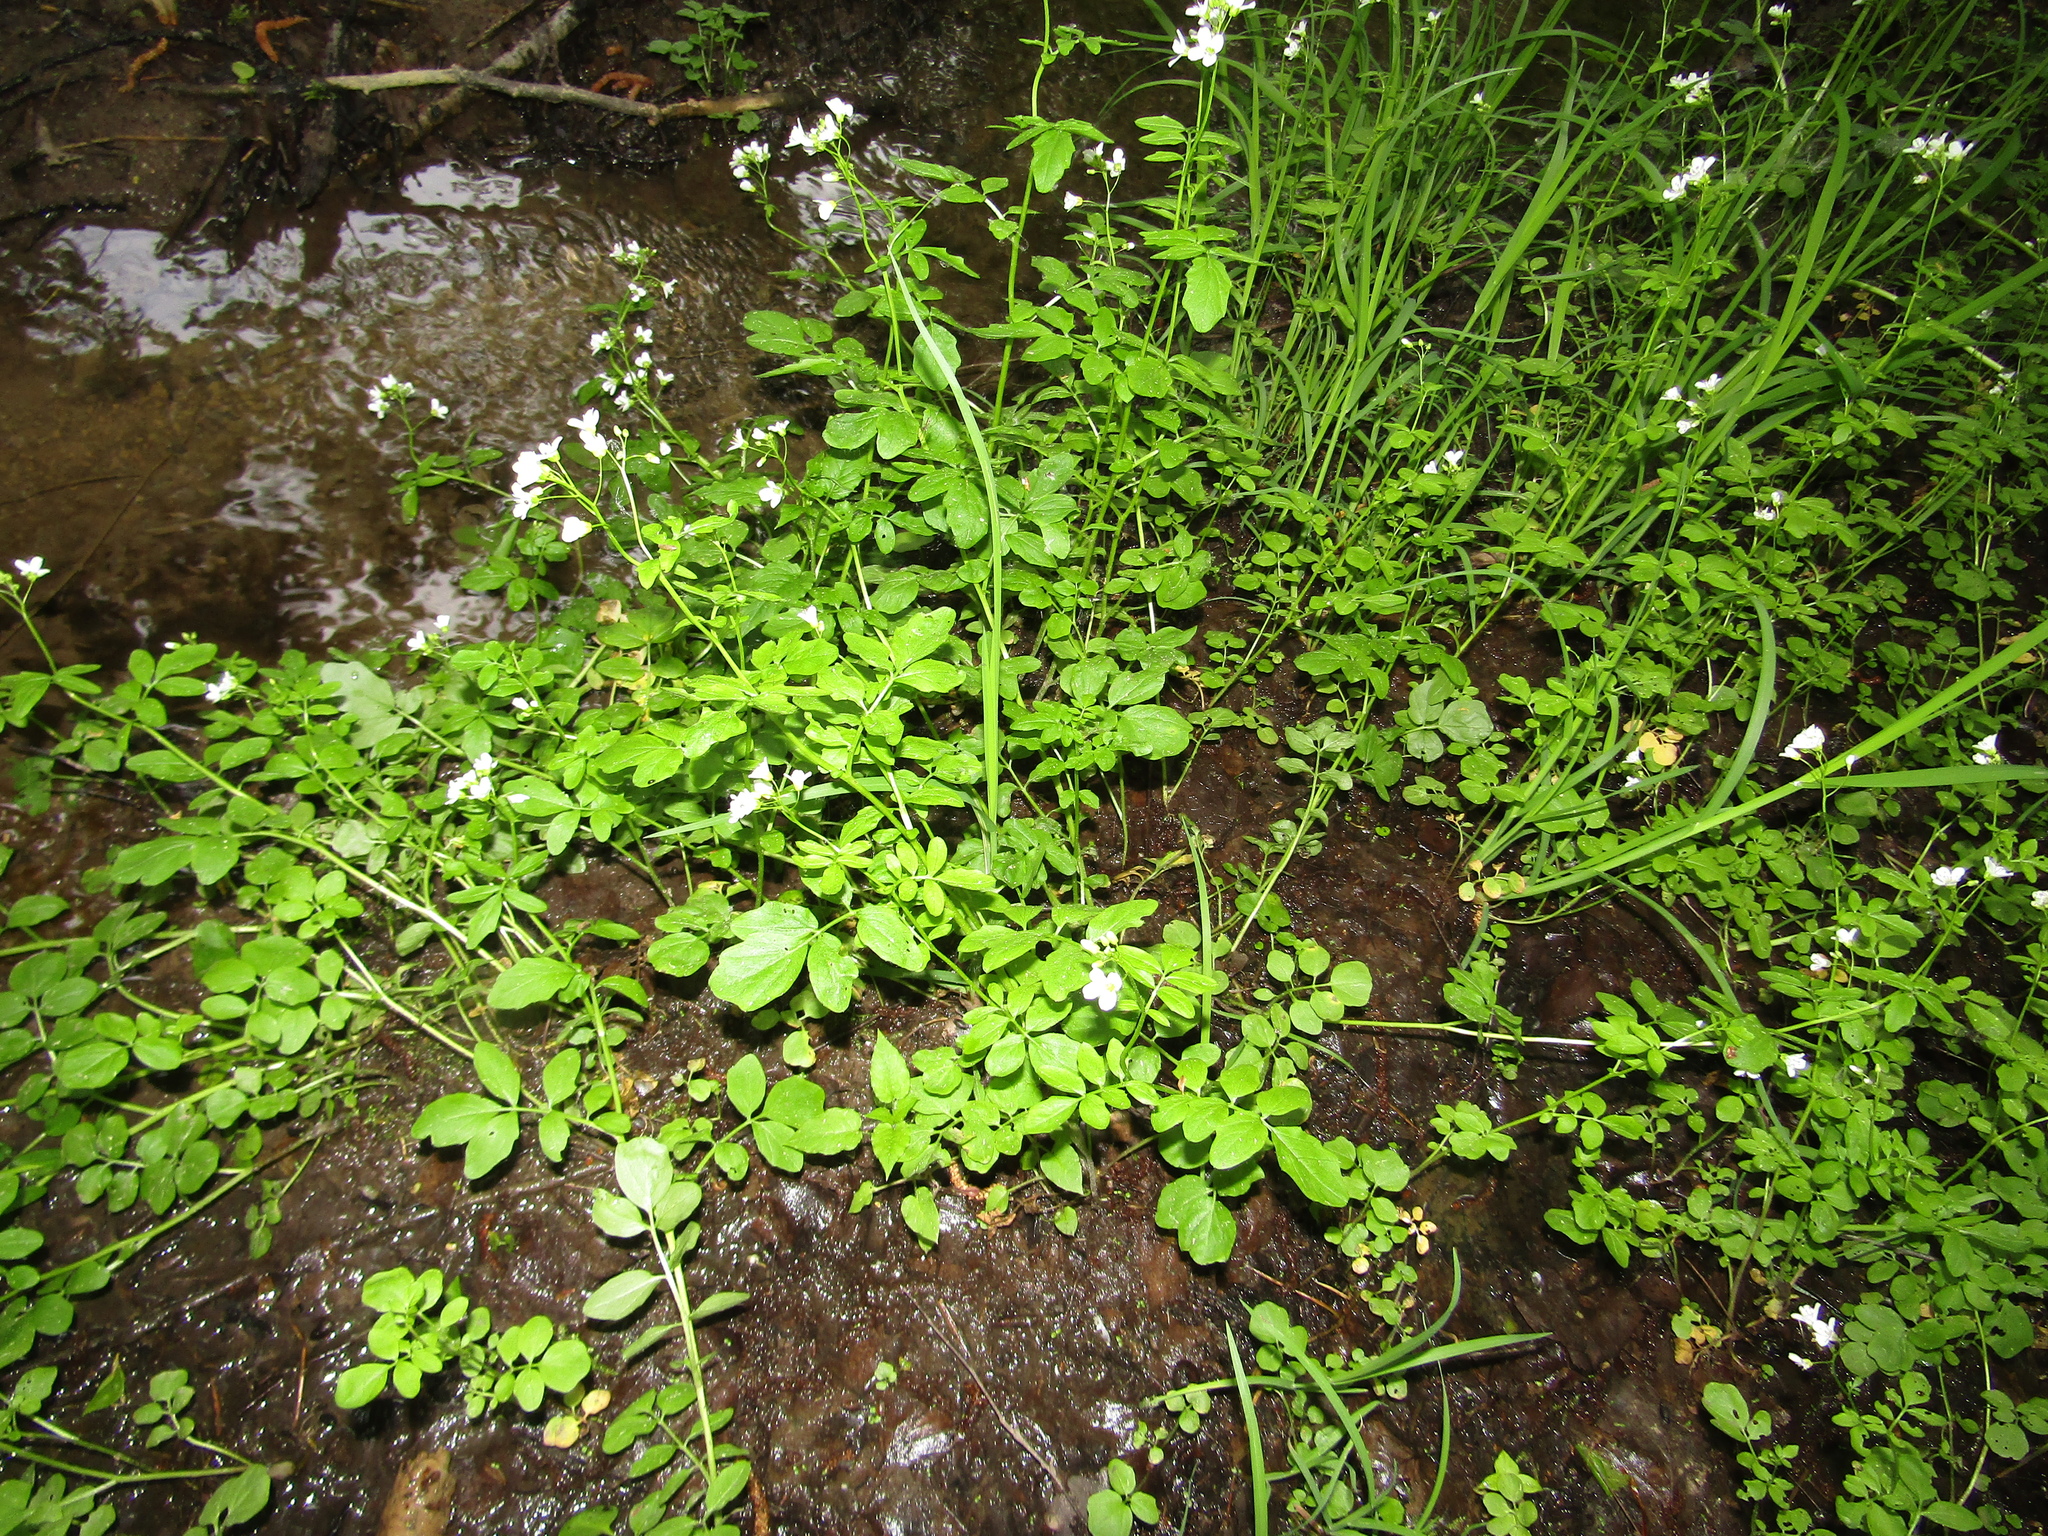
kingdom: Plantae
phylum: Tracheophyta
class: Magnoliopsida
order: Brassicales
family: Brassicaceae
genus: Cardamine
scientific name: Cardamine amara
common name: Large bitter-cress
